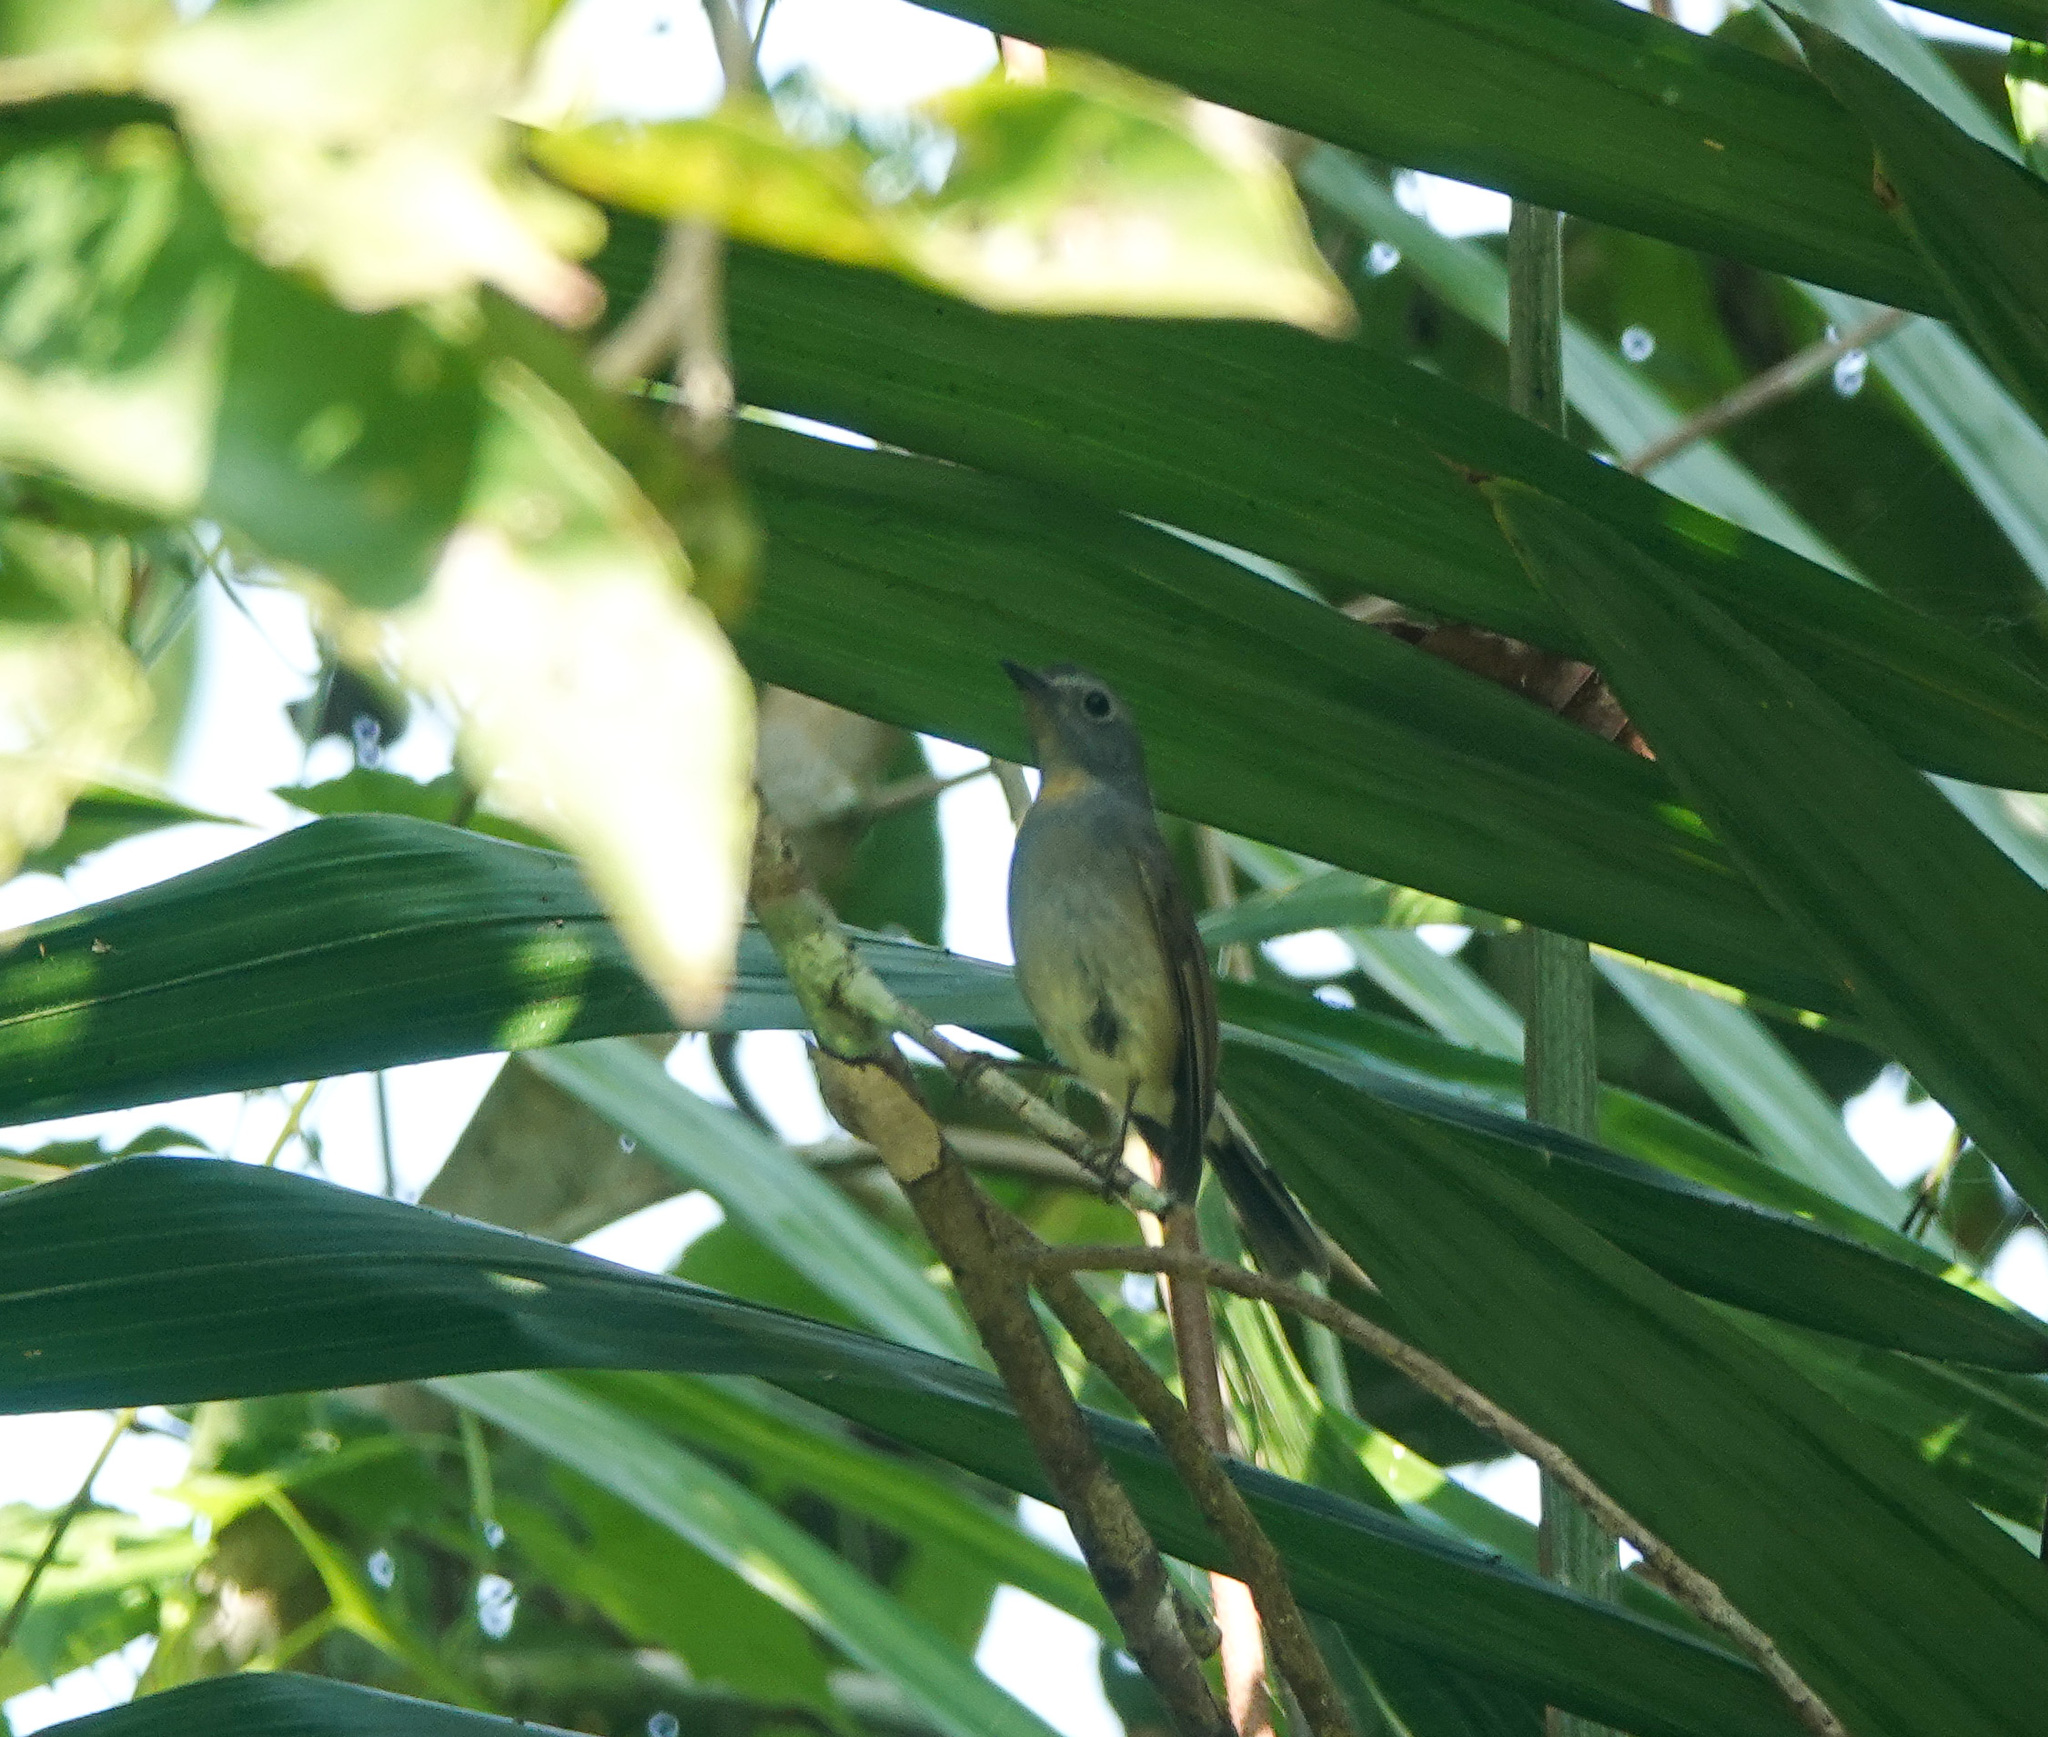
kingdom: Animalia
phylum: Chordata
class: Aves
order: Passeriformes
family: Muscicapidae
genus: Ficedula
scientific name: Ficedula albicilla
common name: Taiga flycatcher
